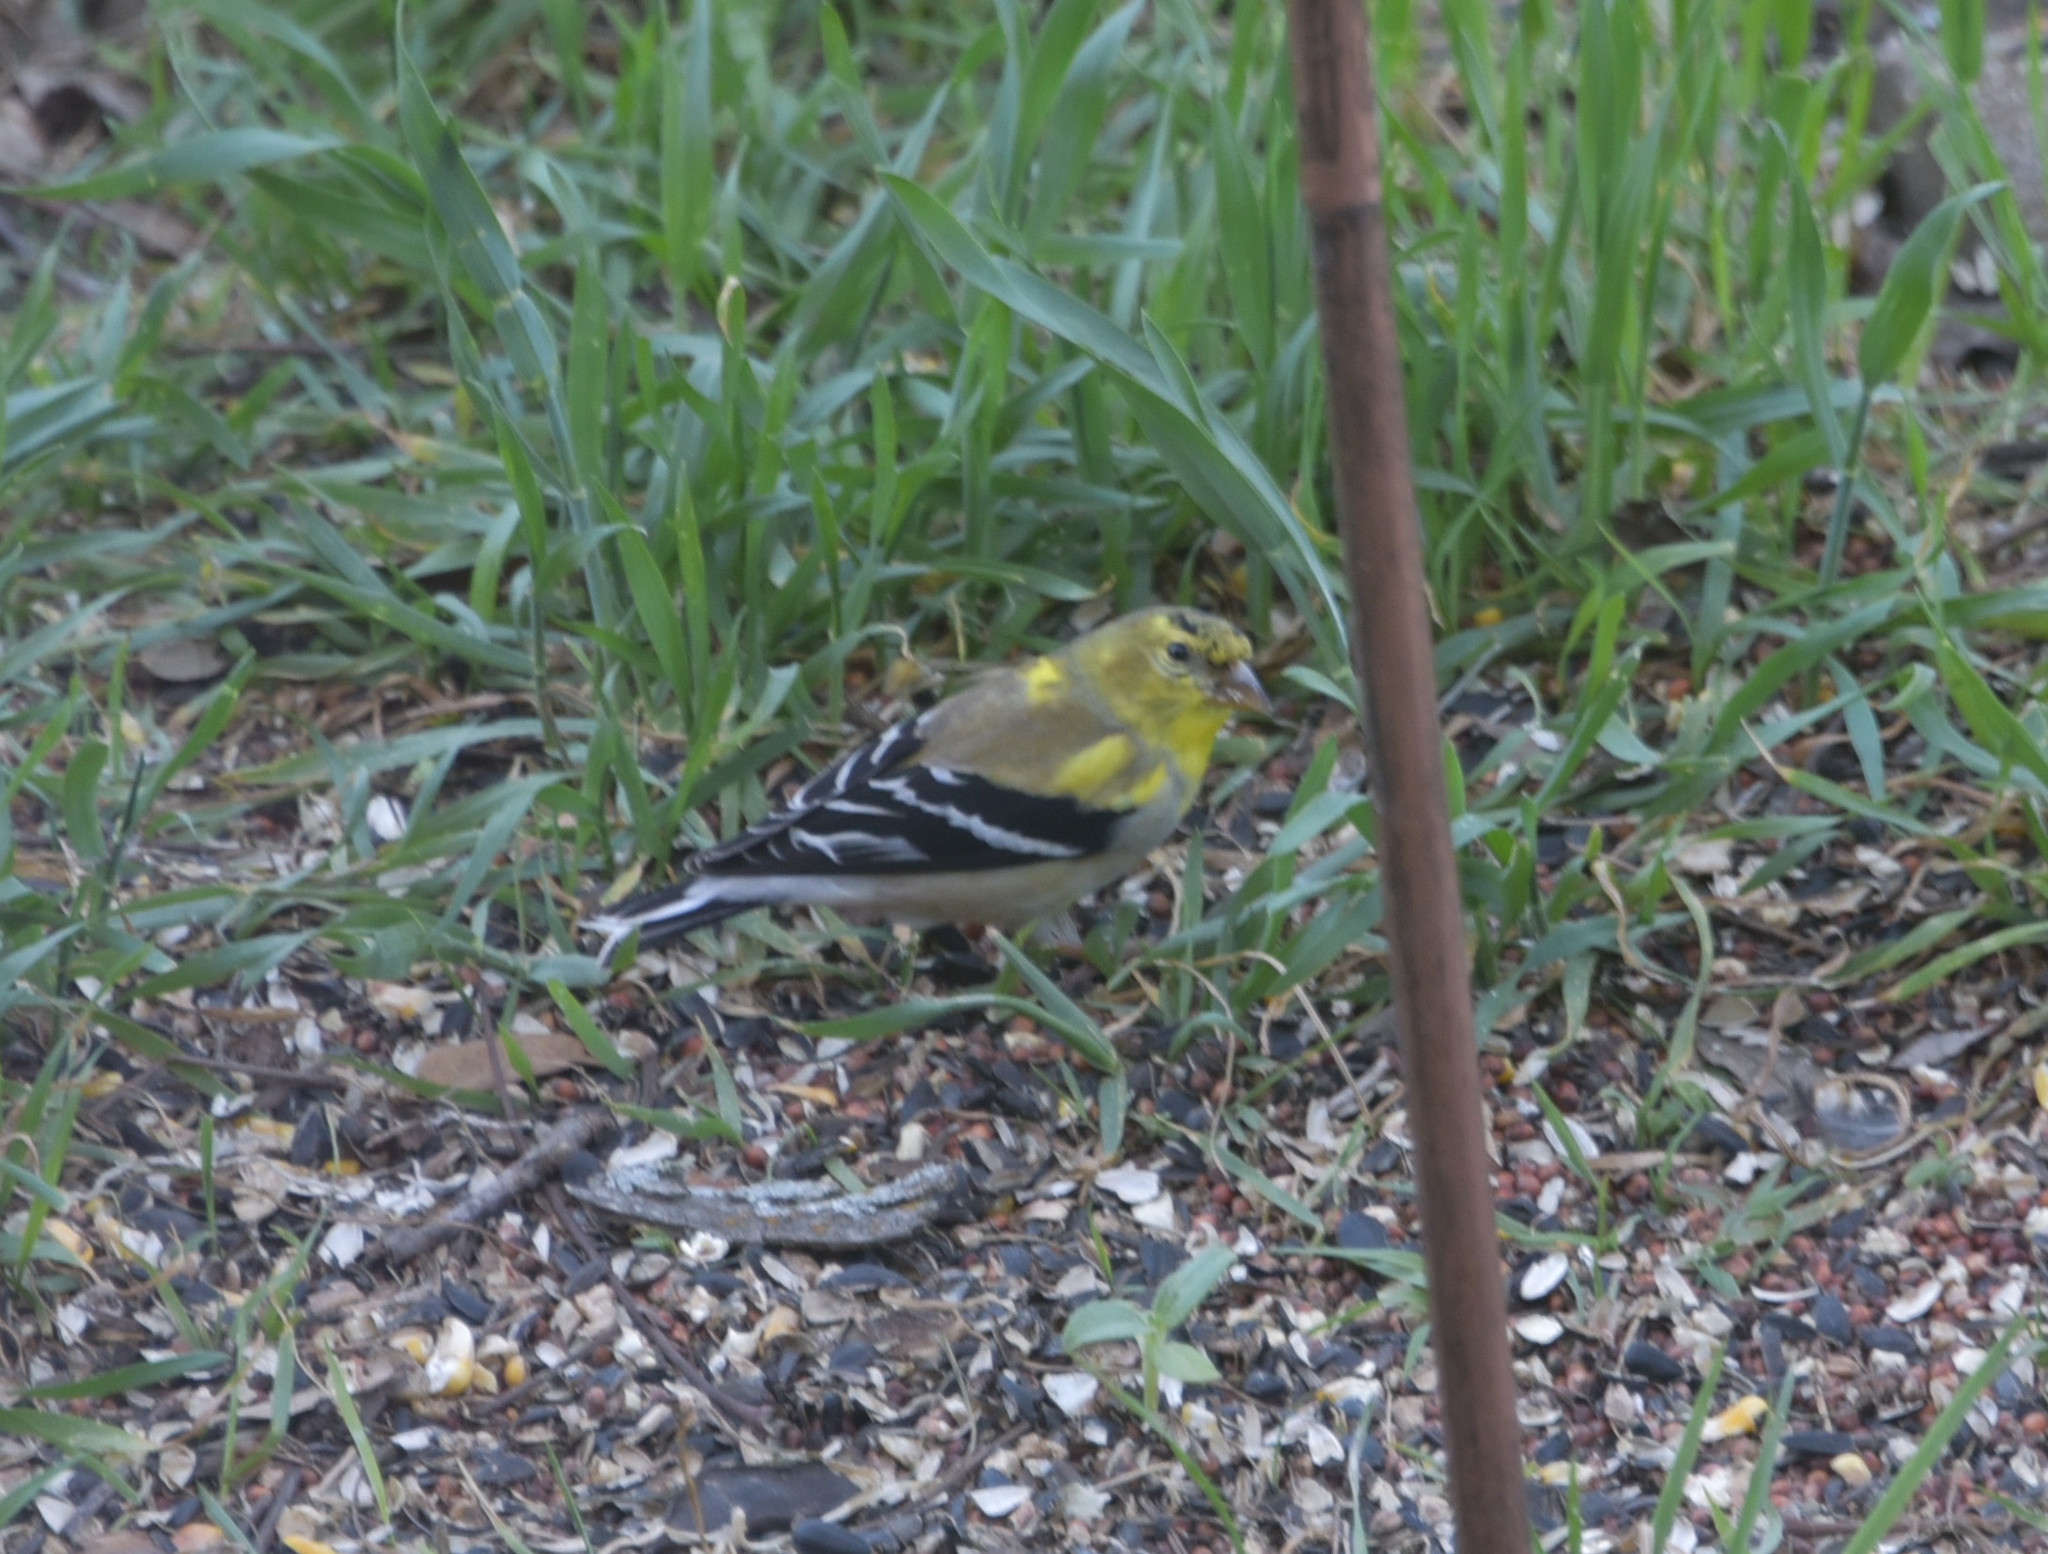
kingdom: Animalia
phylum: Chordata
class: Aves
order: Passeriformes
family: Fringillidae
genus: Spinus
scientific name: Spinus tristis
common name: American goldfinch
